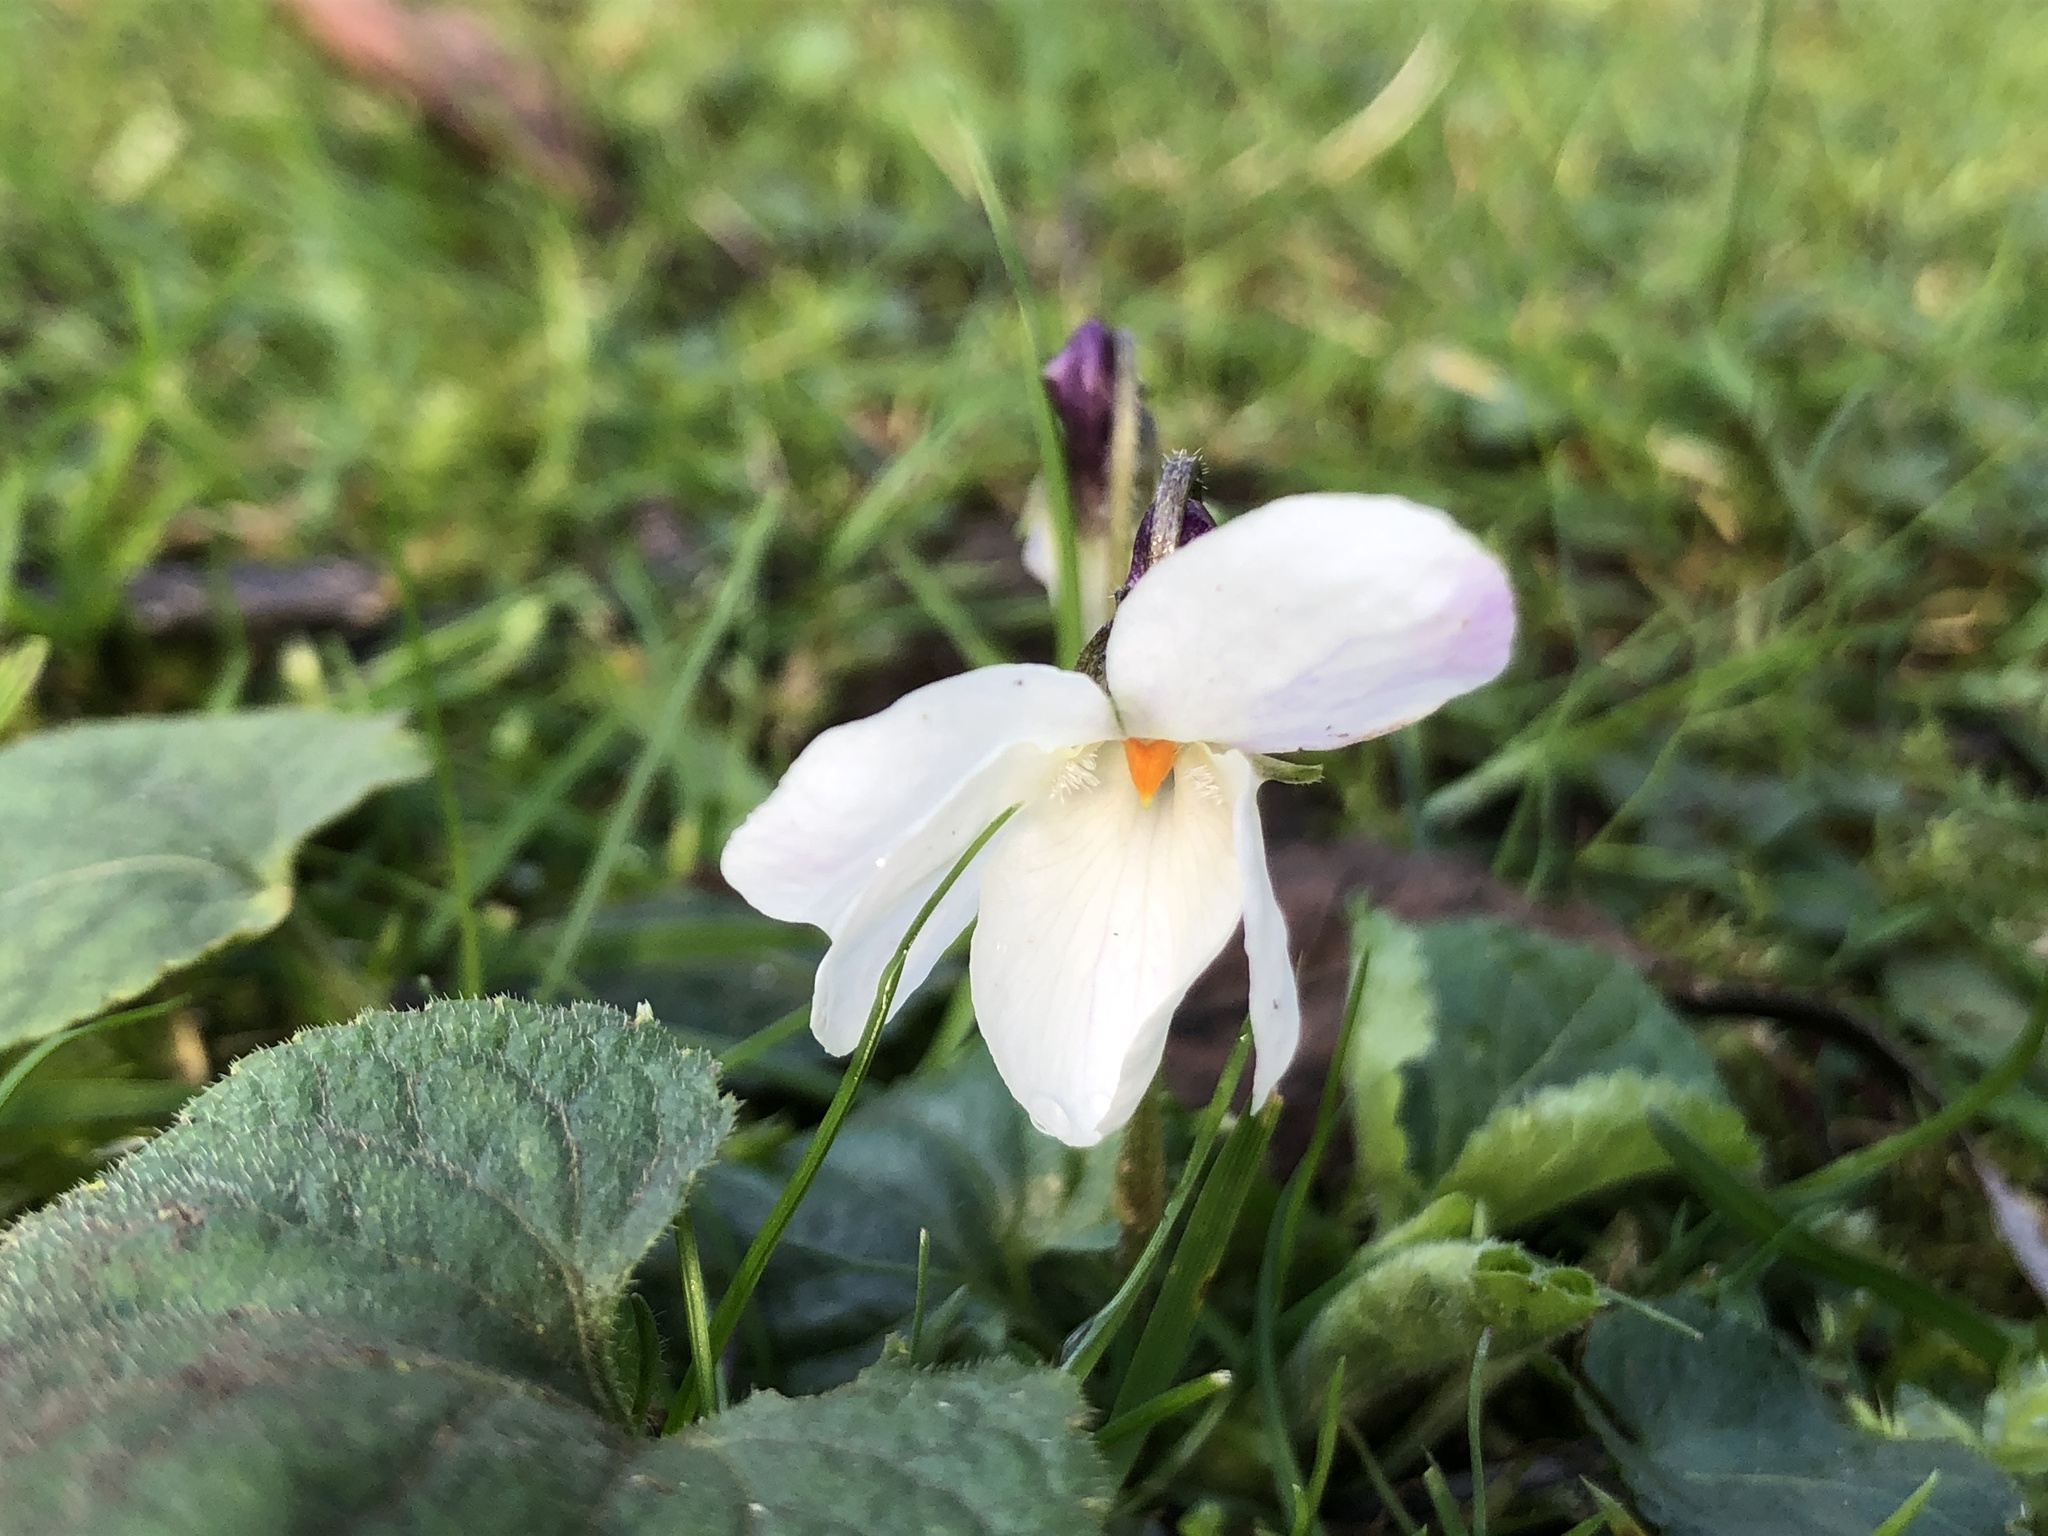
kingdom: Plantae
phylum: Tracheophyta
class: Magnoliopsida
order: Malpighiales
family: Violaceae
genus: Viola
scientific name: Viola odorata
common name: Sweet violet
